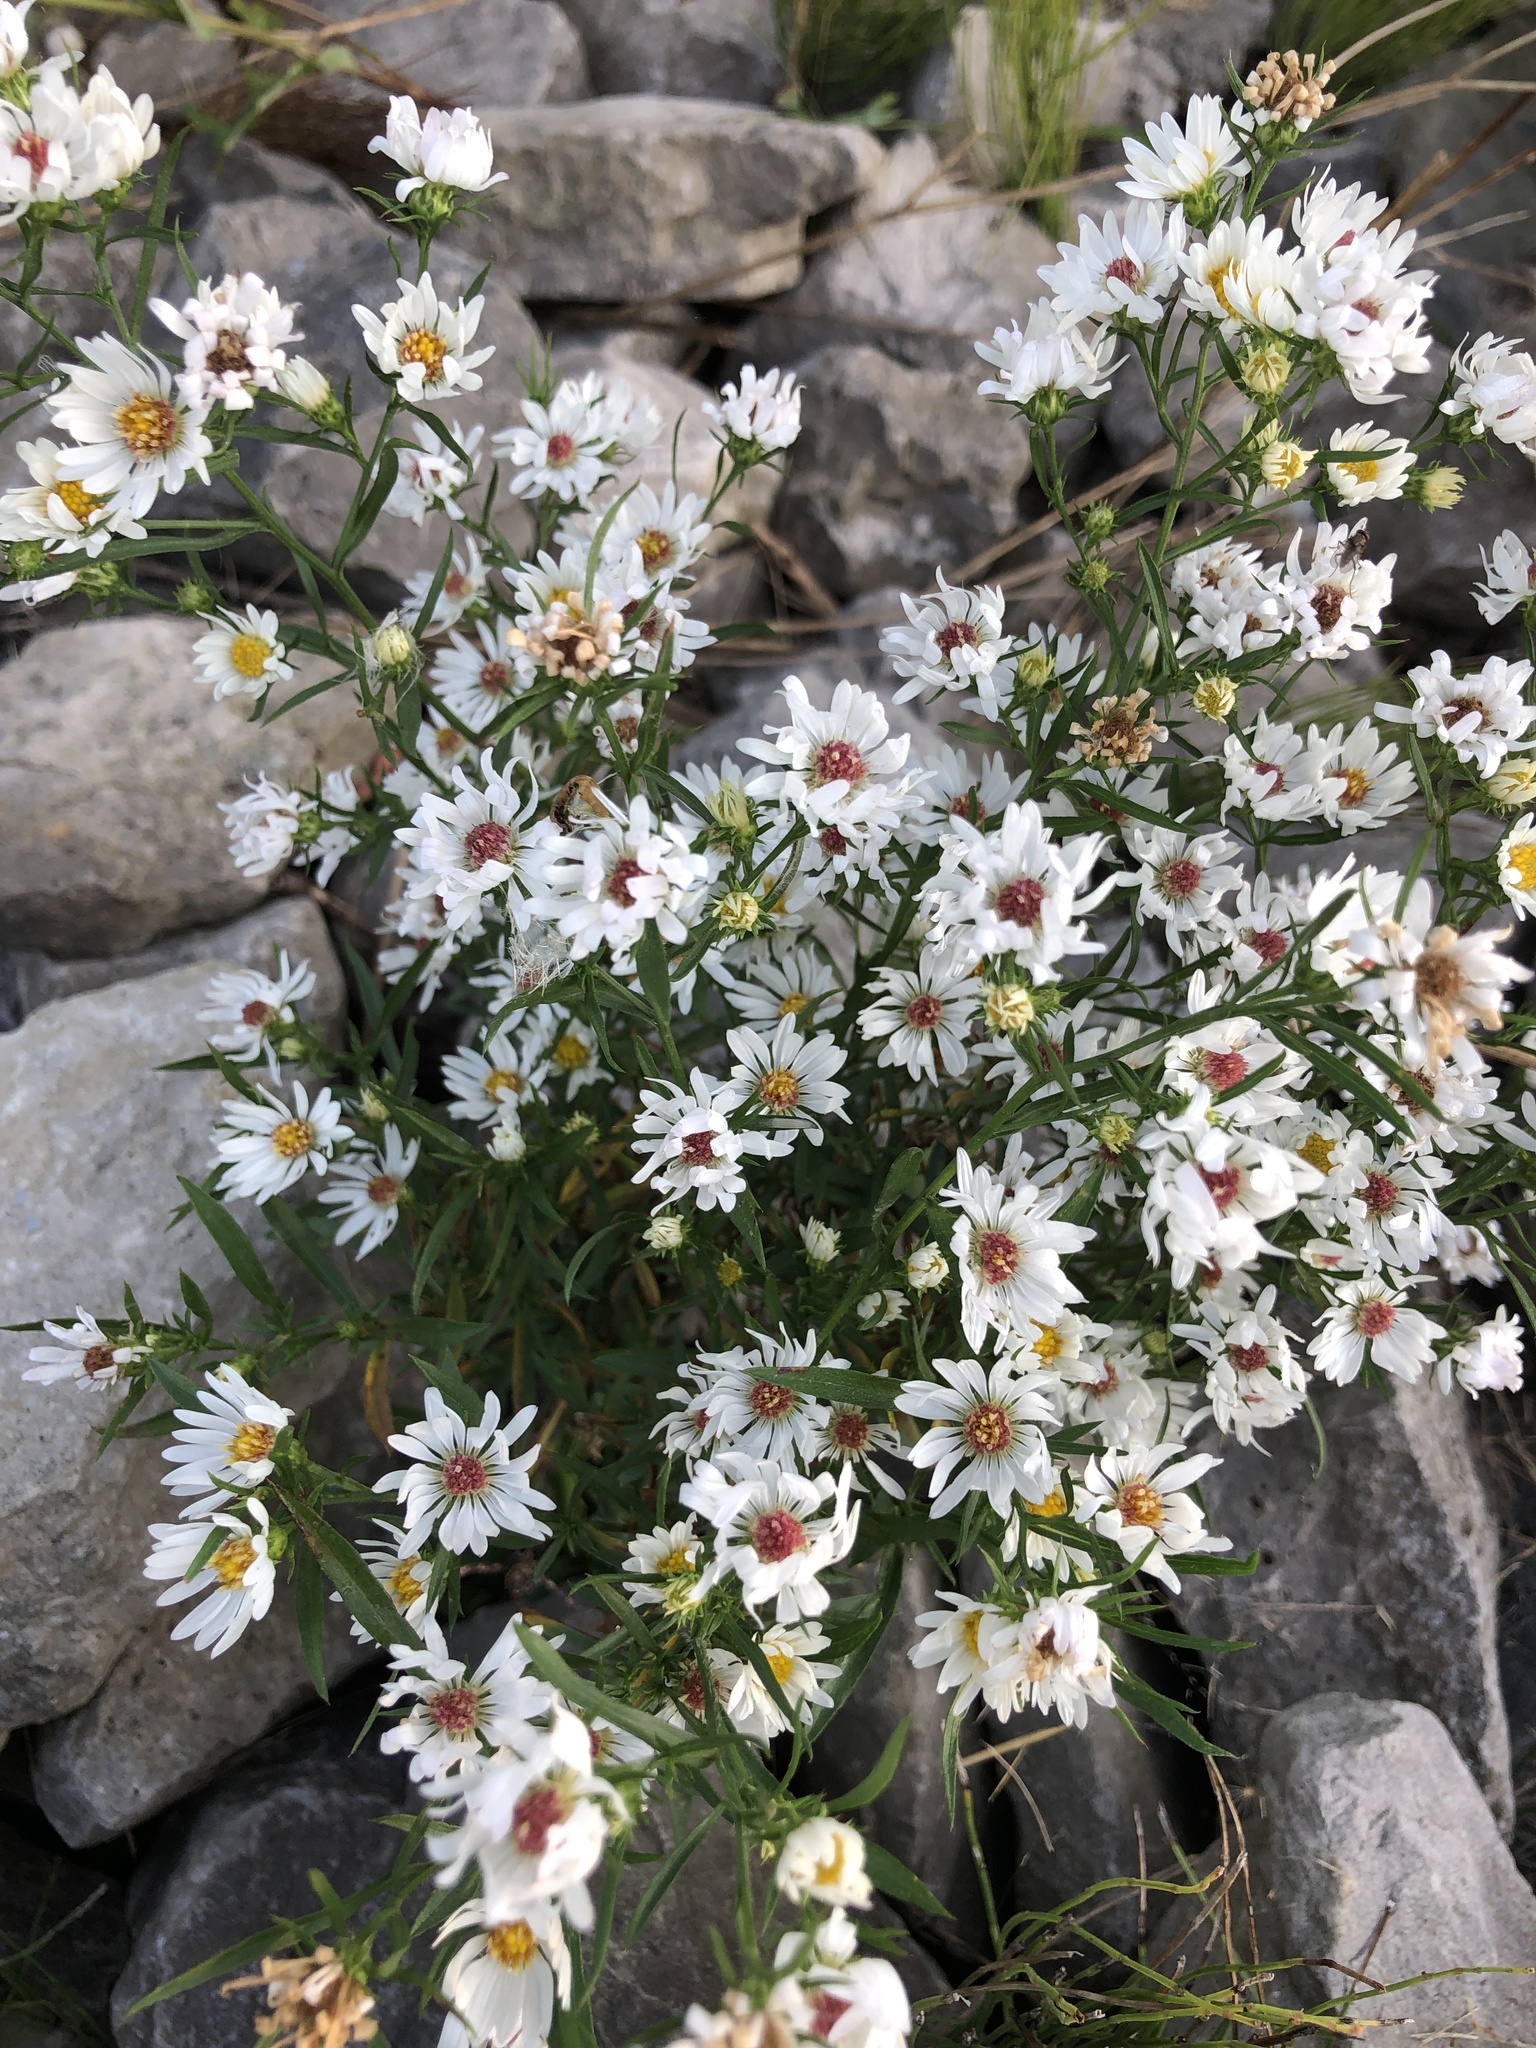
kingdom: Plantae
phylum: Tracheophyta
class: Magnoliopsida
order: Asterales
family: Asteraceae
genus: Symphyotrichum
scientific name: Symphyotrichum lanceolatum
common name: Panicled aster
